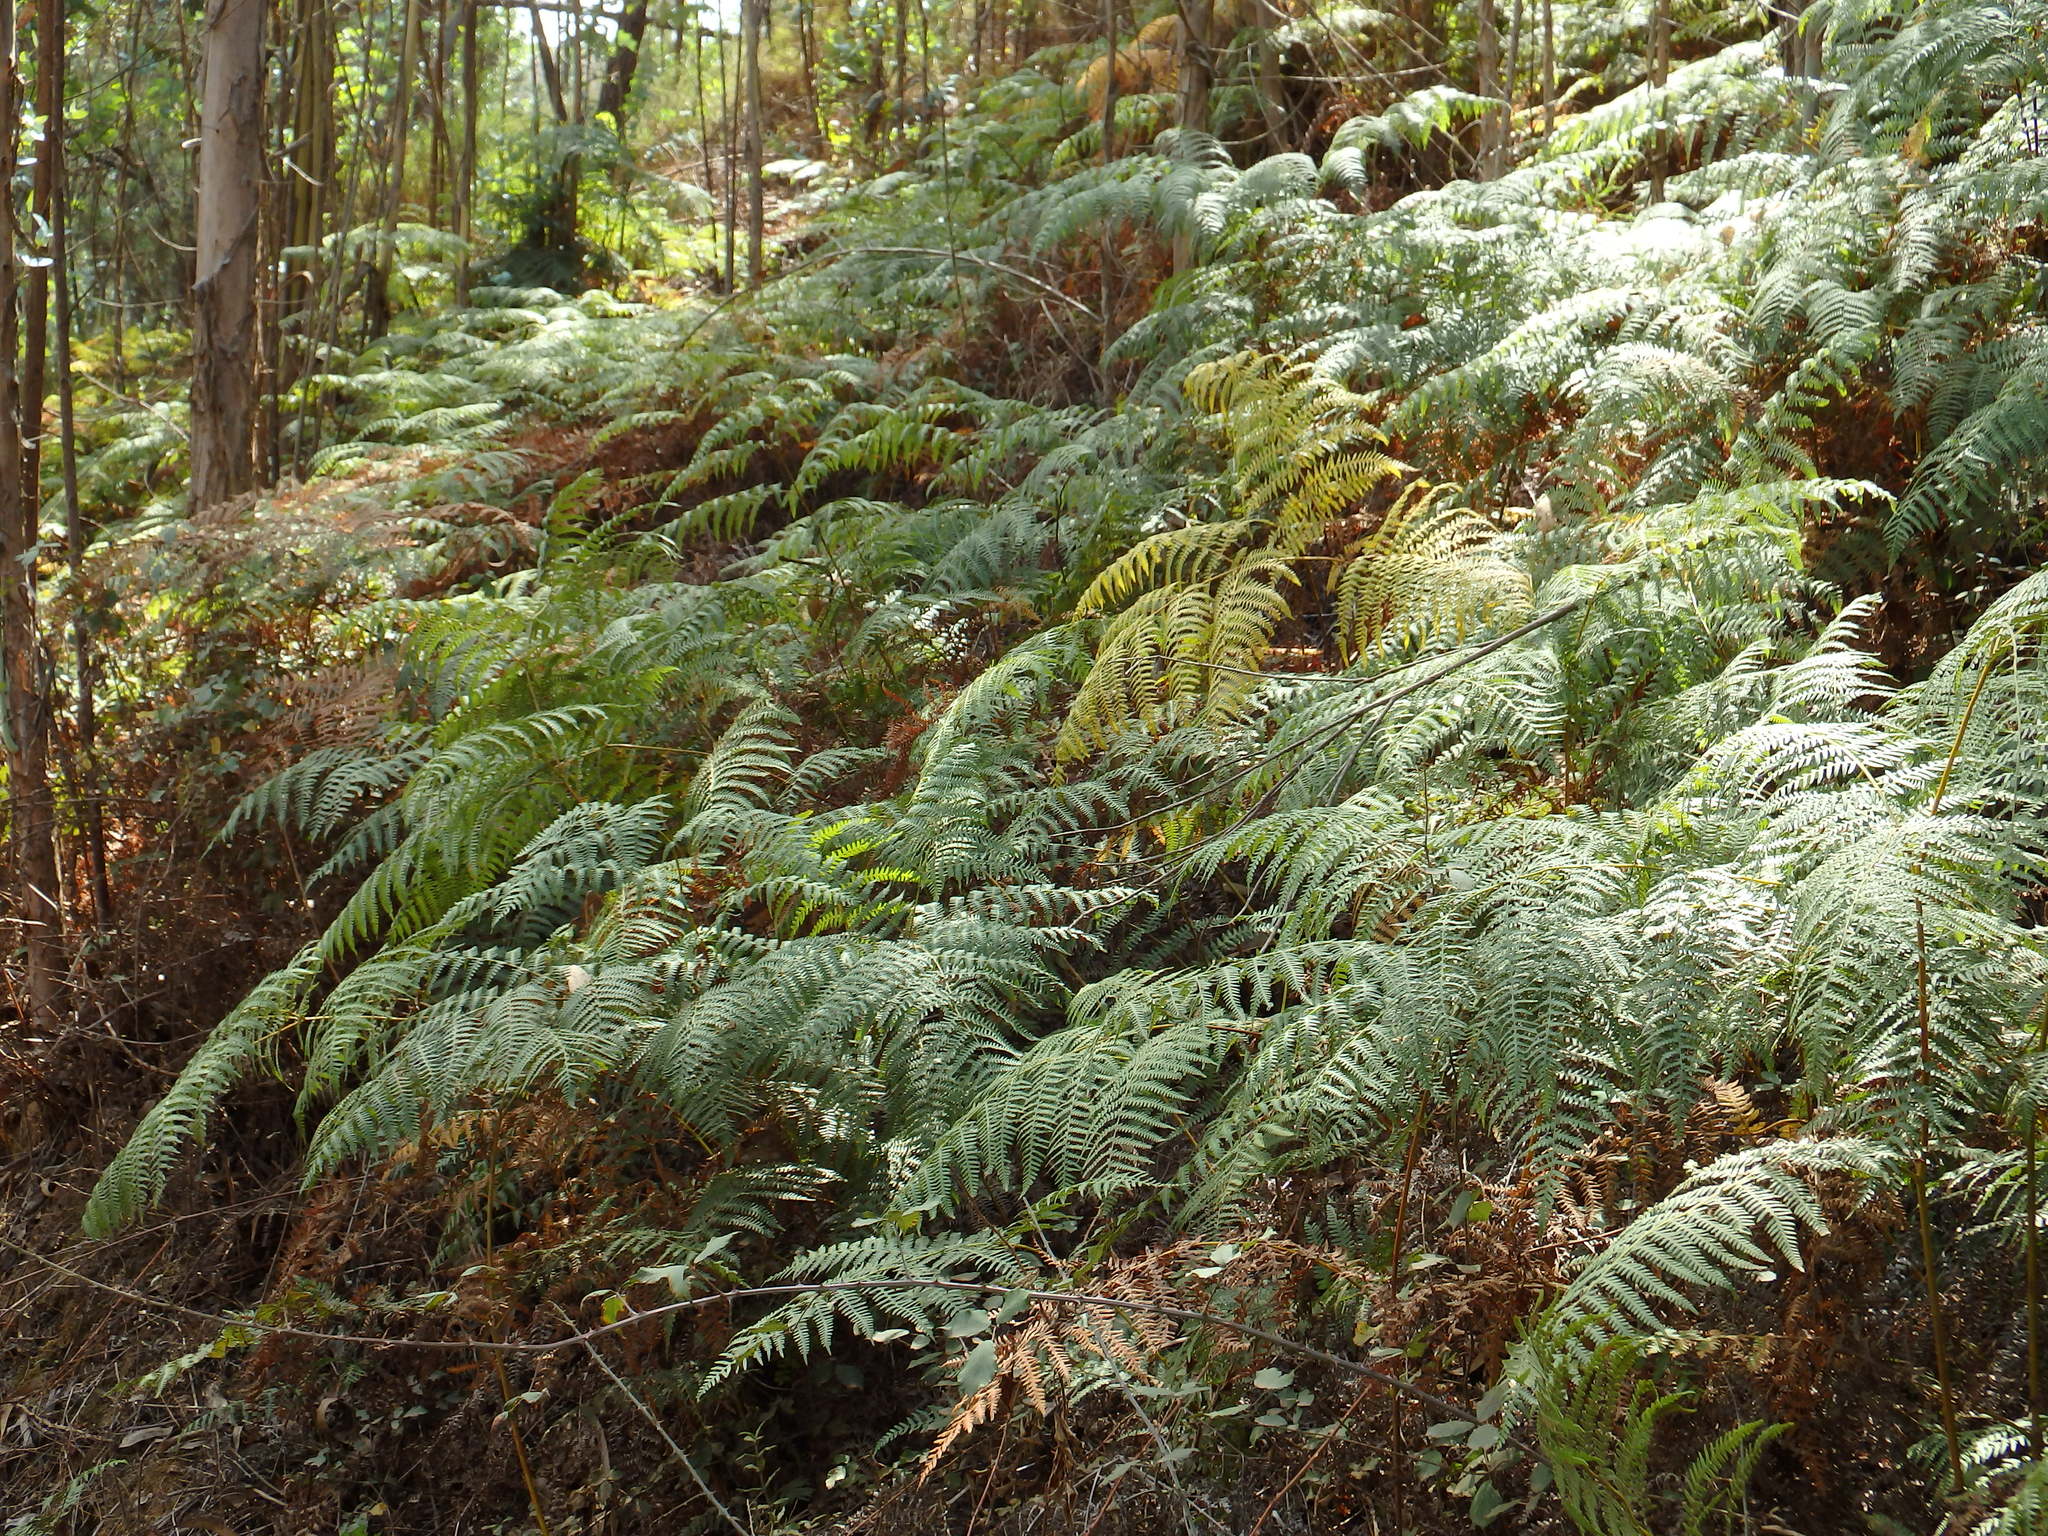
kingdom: Plantae
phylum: Tracheophyta
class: Polypodiopsida
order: Polypodiales
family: Dennstaedtiaceae
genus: Pteridium
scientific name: Pteridium aquilinum
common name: Bracken
